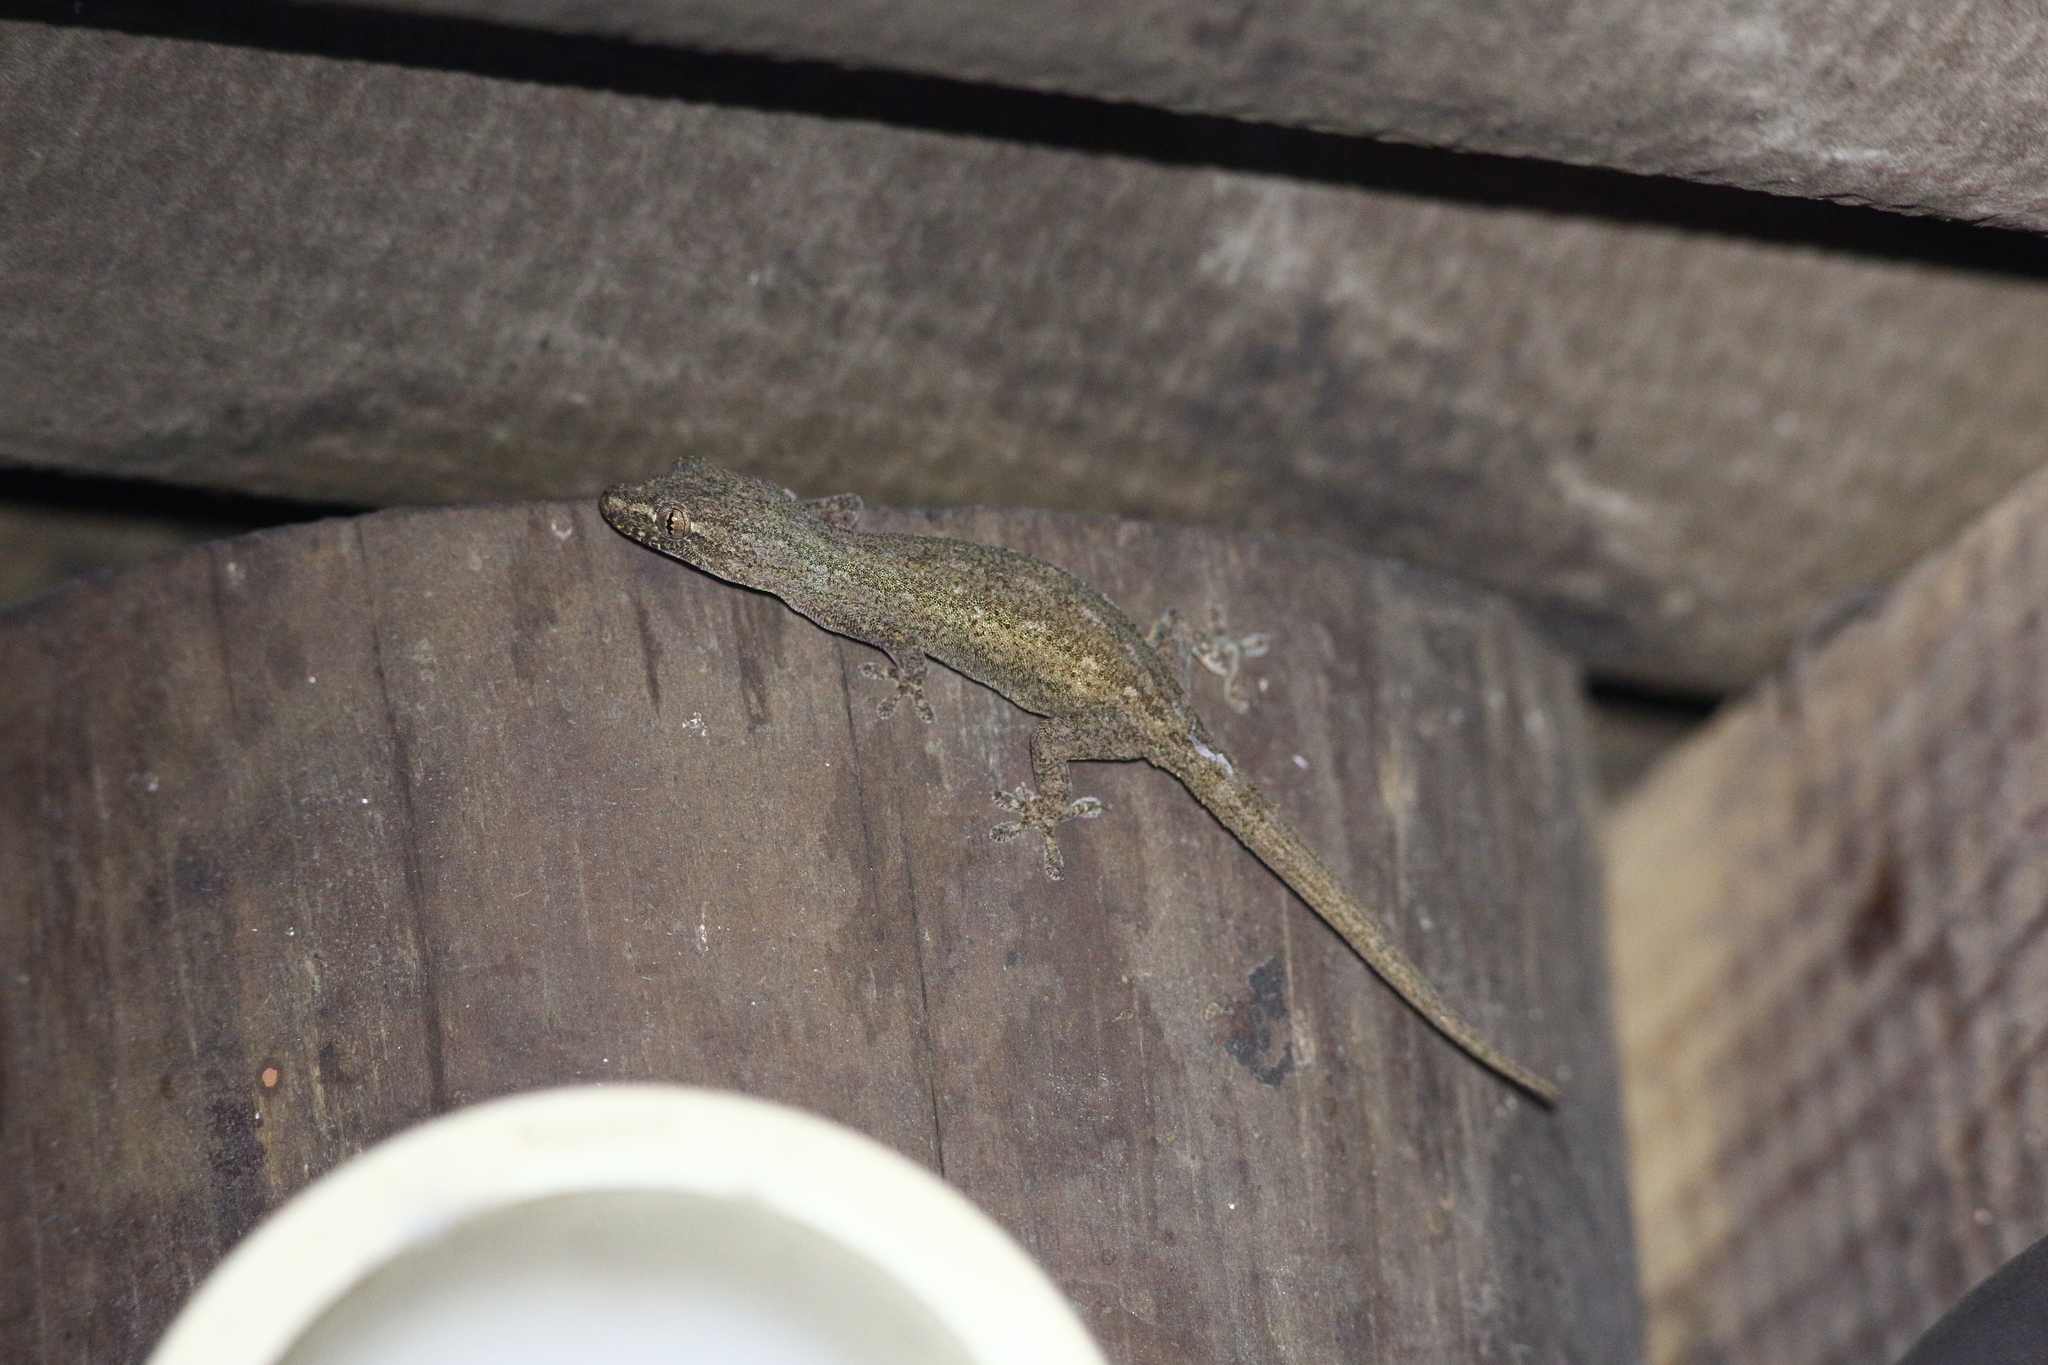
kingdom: Animalia
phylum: Chordata
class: Squamata
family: Gekkonidae
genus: Hemidactylus
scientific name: Hemidactylus frenatus
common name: Common house gecko
